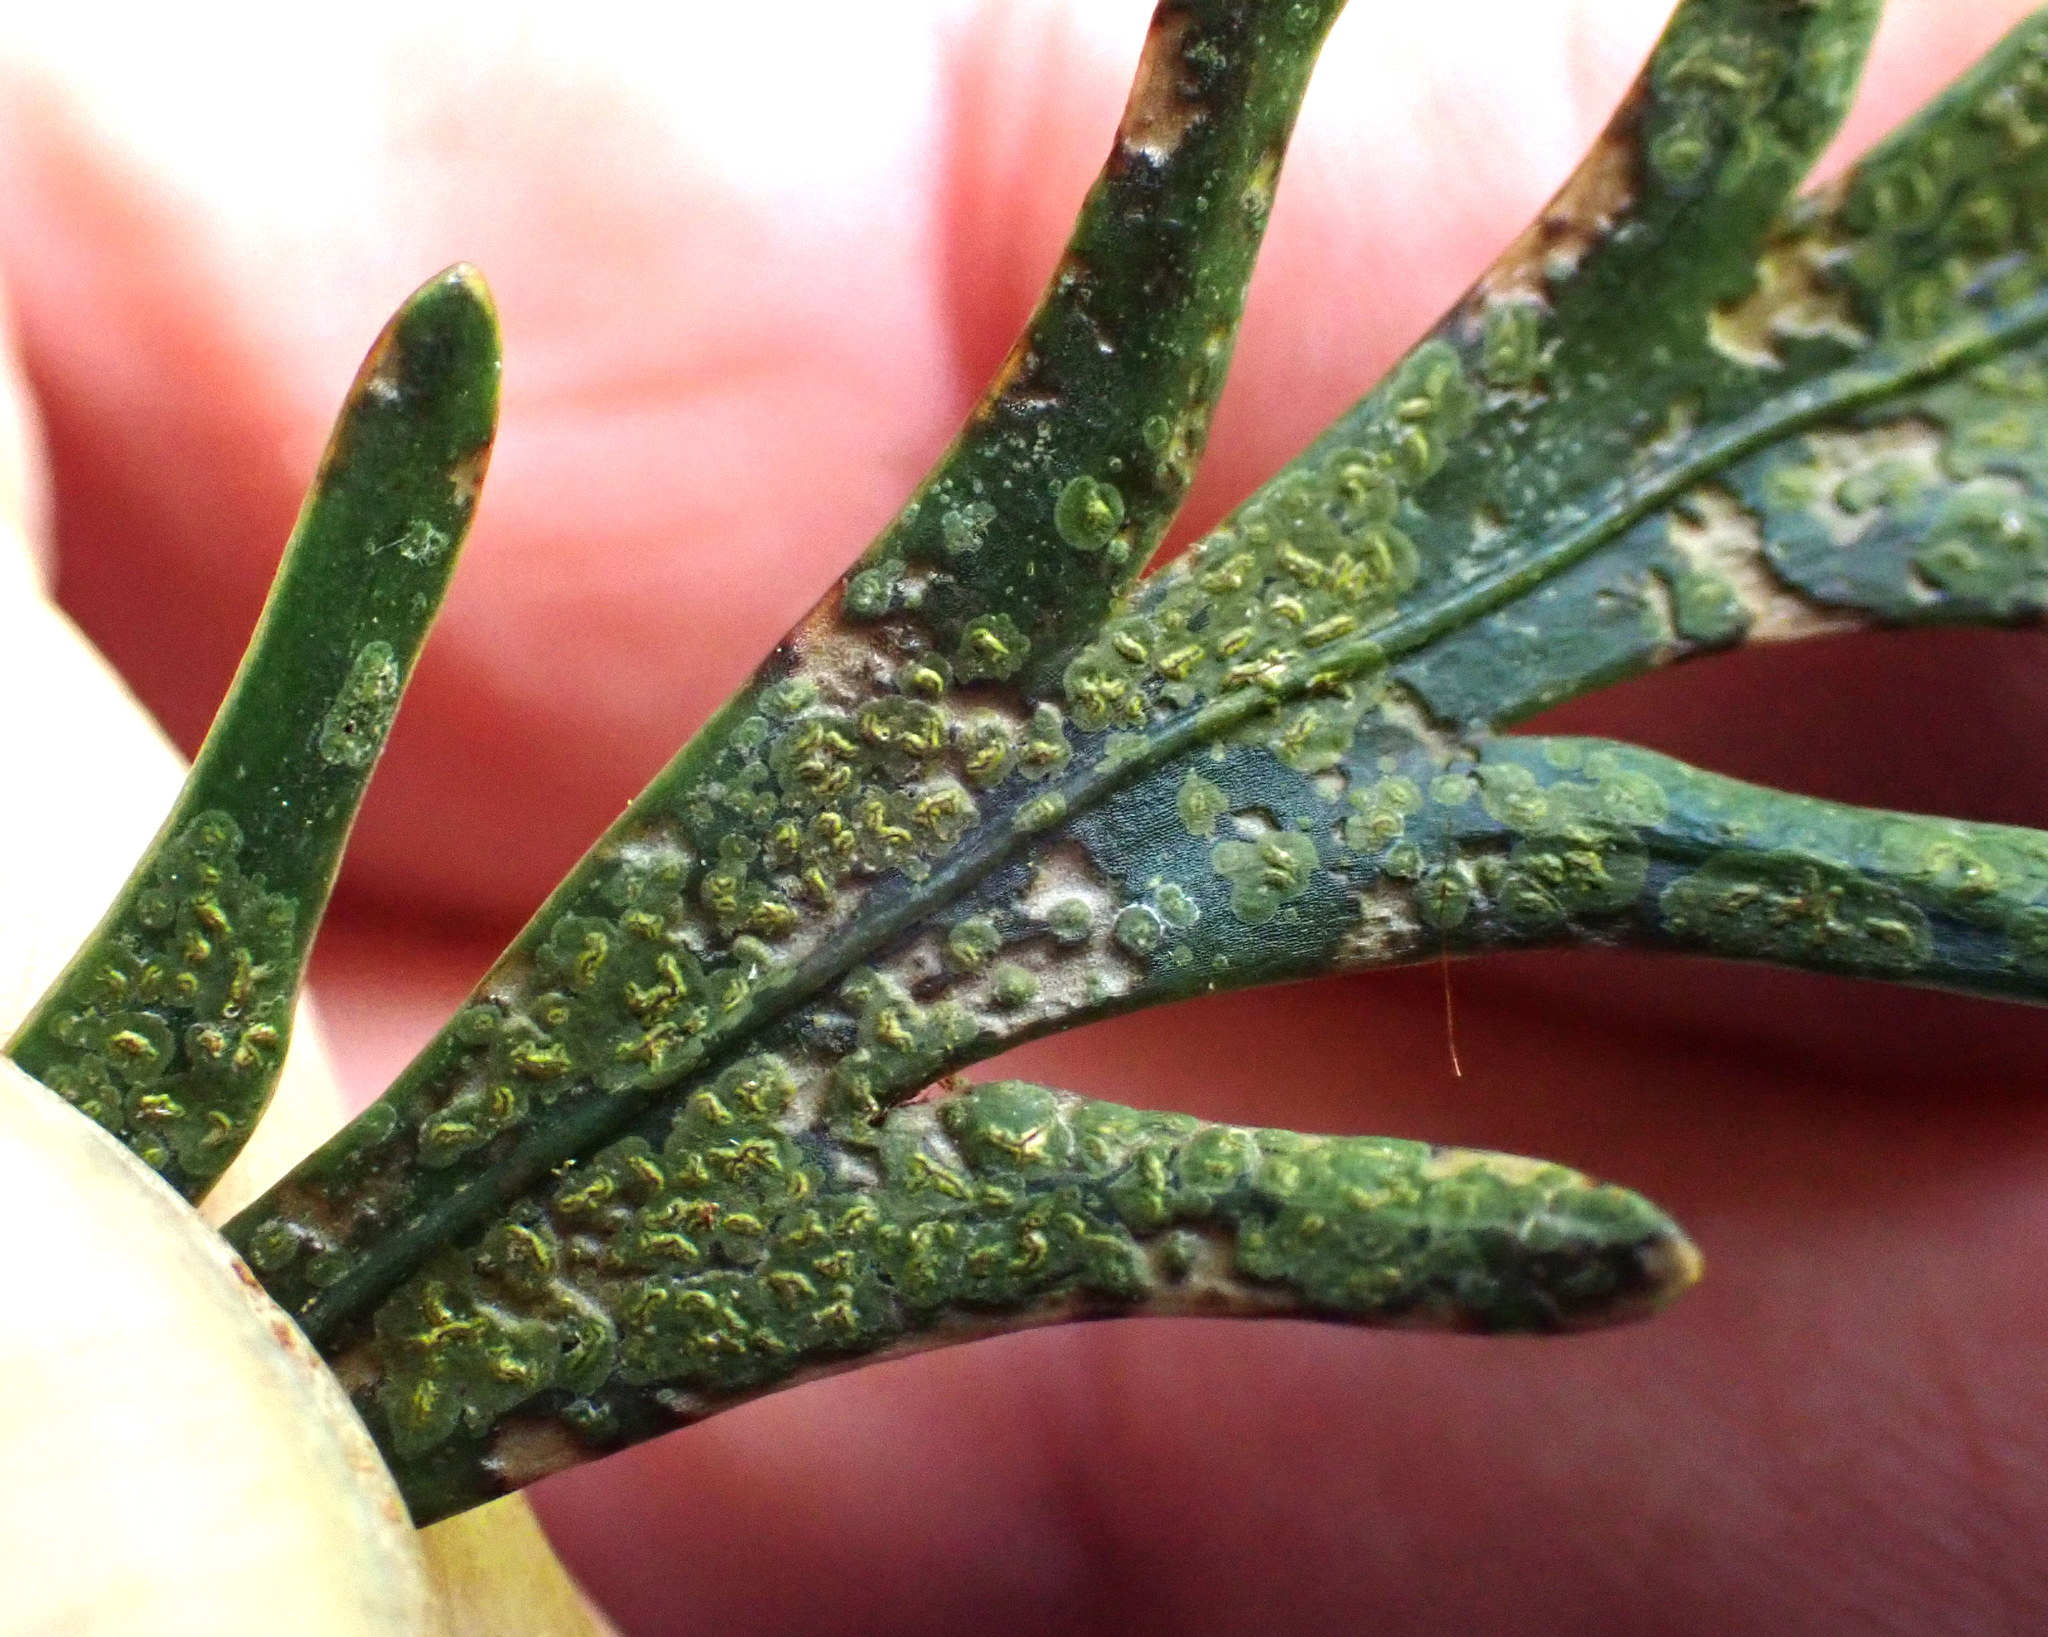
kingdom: Fungi
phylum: Ascomycota
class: Arthoniomycetes
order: Arthoniales
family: Roccellaceae
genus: Enterographa
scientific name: Enterographa bella
